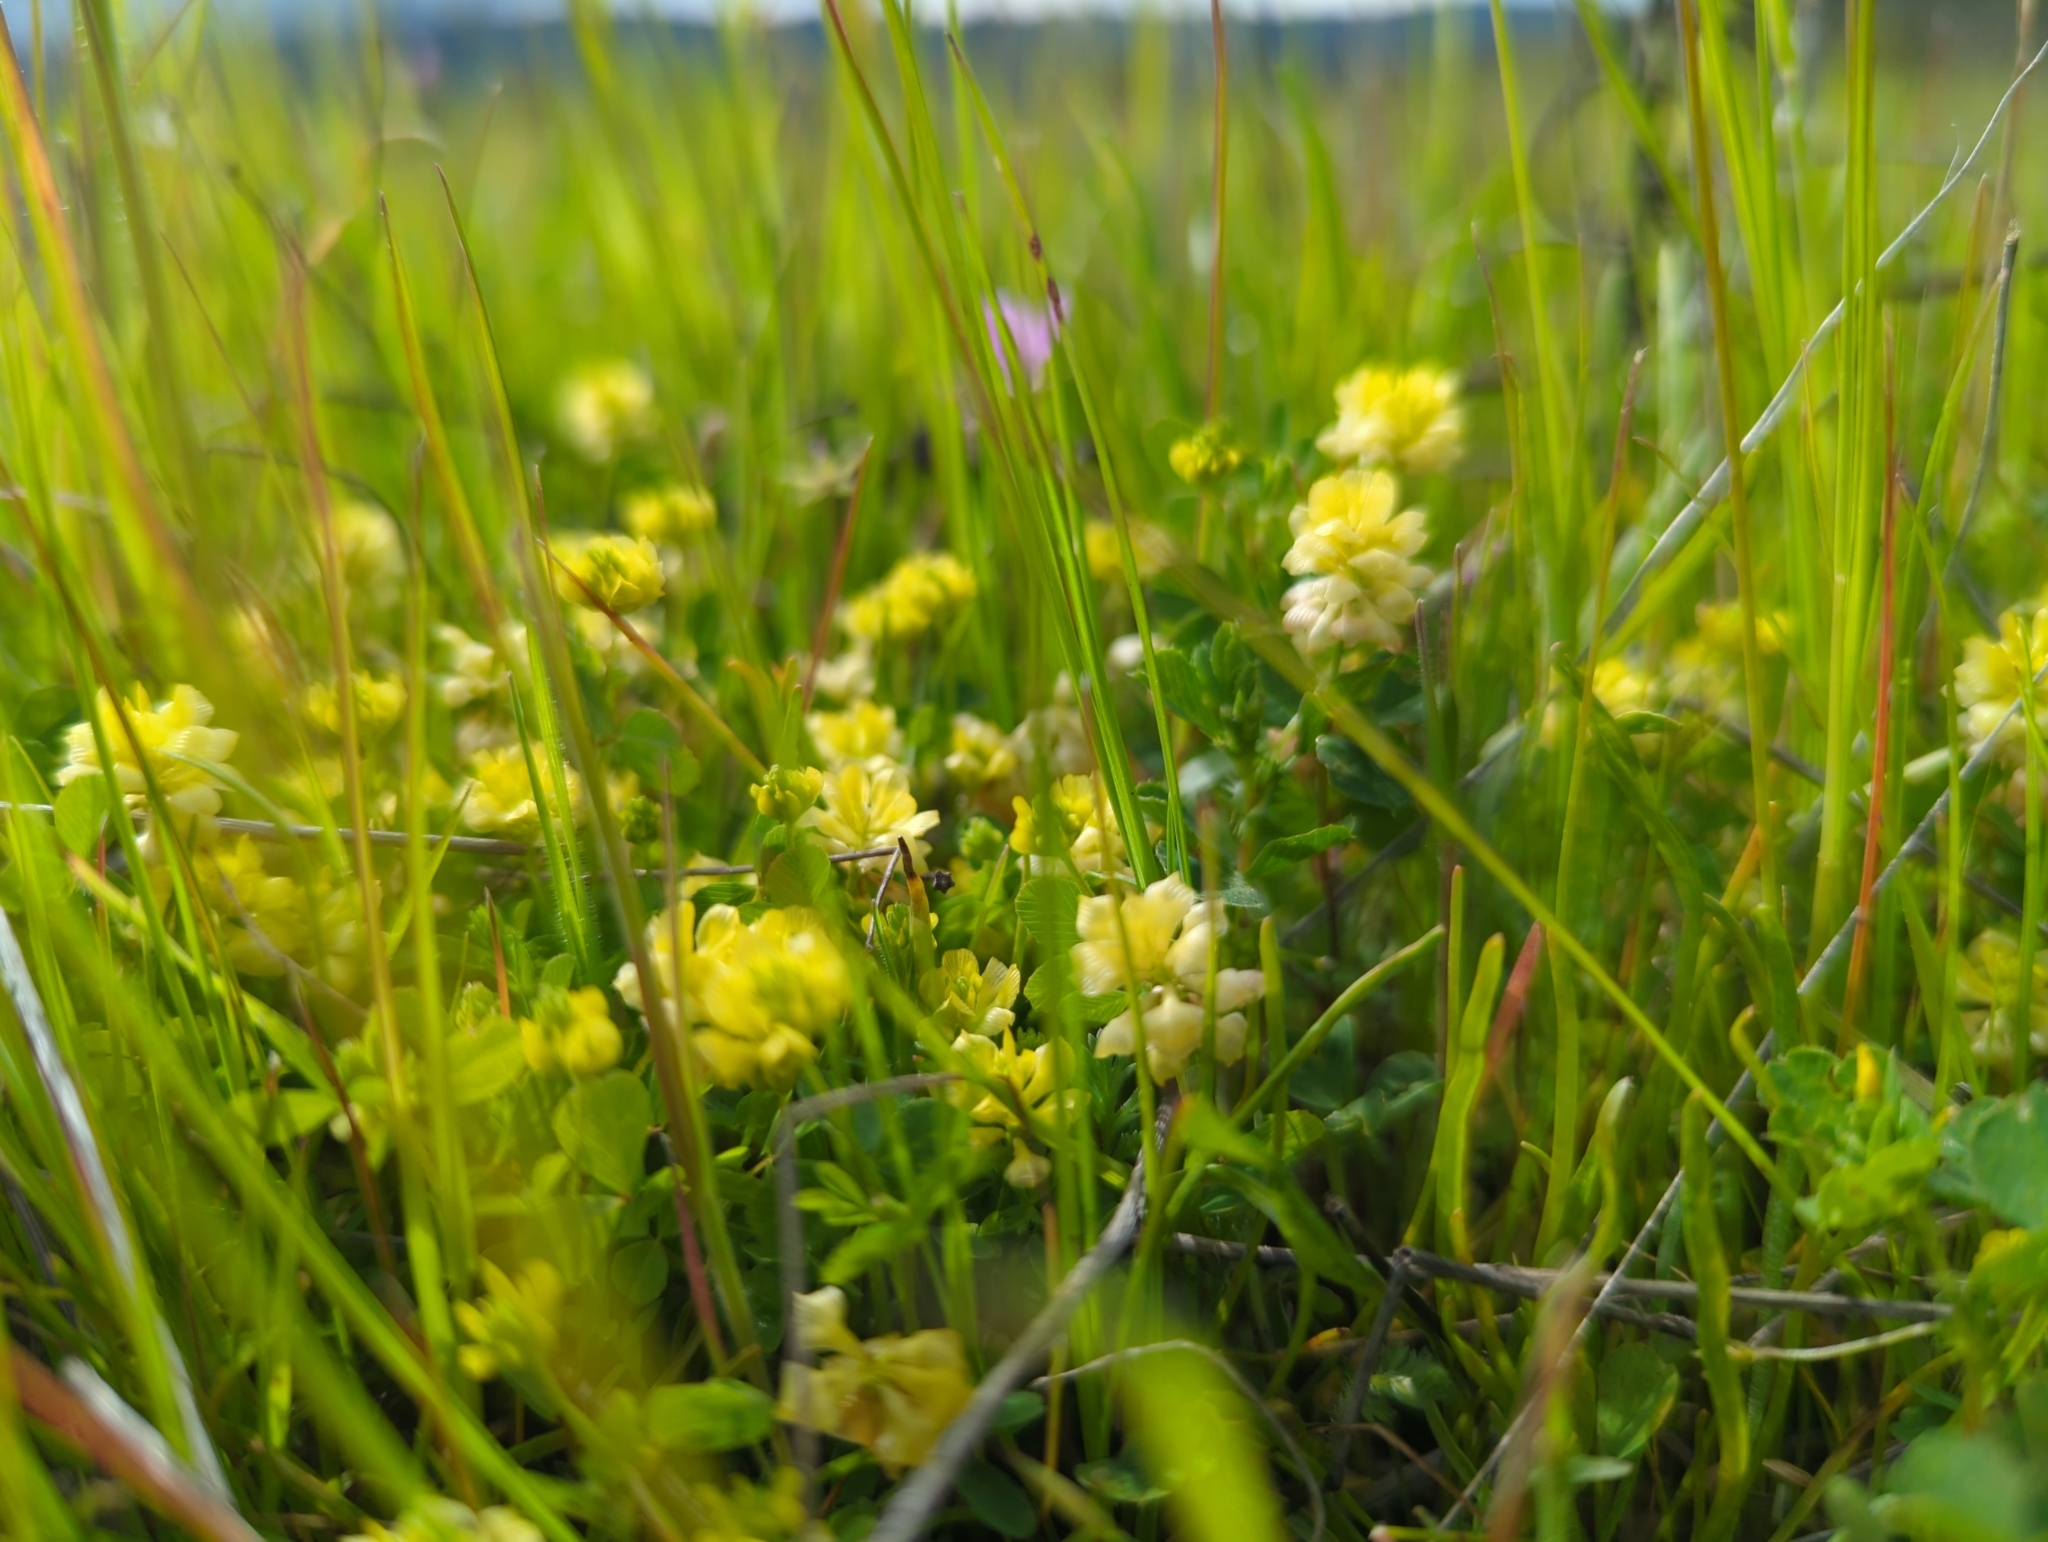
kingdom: Plantae
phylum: Tracheophyta
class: Magnoliopsida
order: Fabales
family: Fabaceae
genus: Trifolium
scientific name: Trifolium campestre
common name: Field clover
